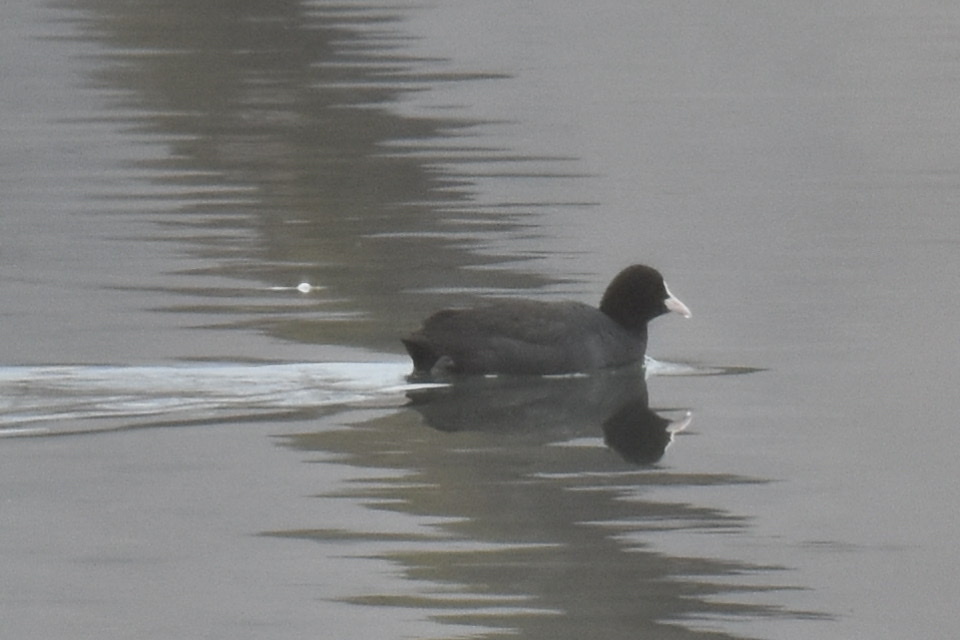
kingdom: Animalia
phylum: Chordata
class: Aves
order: Gruiformes
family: Rallidae
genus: Fulica
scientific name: Fulica atra
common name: Eurasian coot
